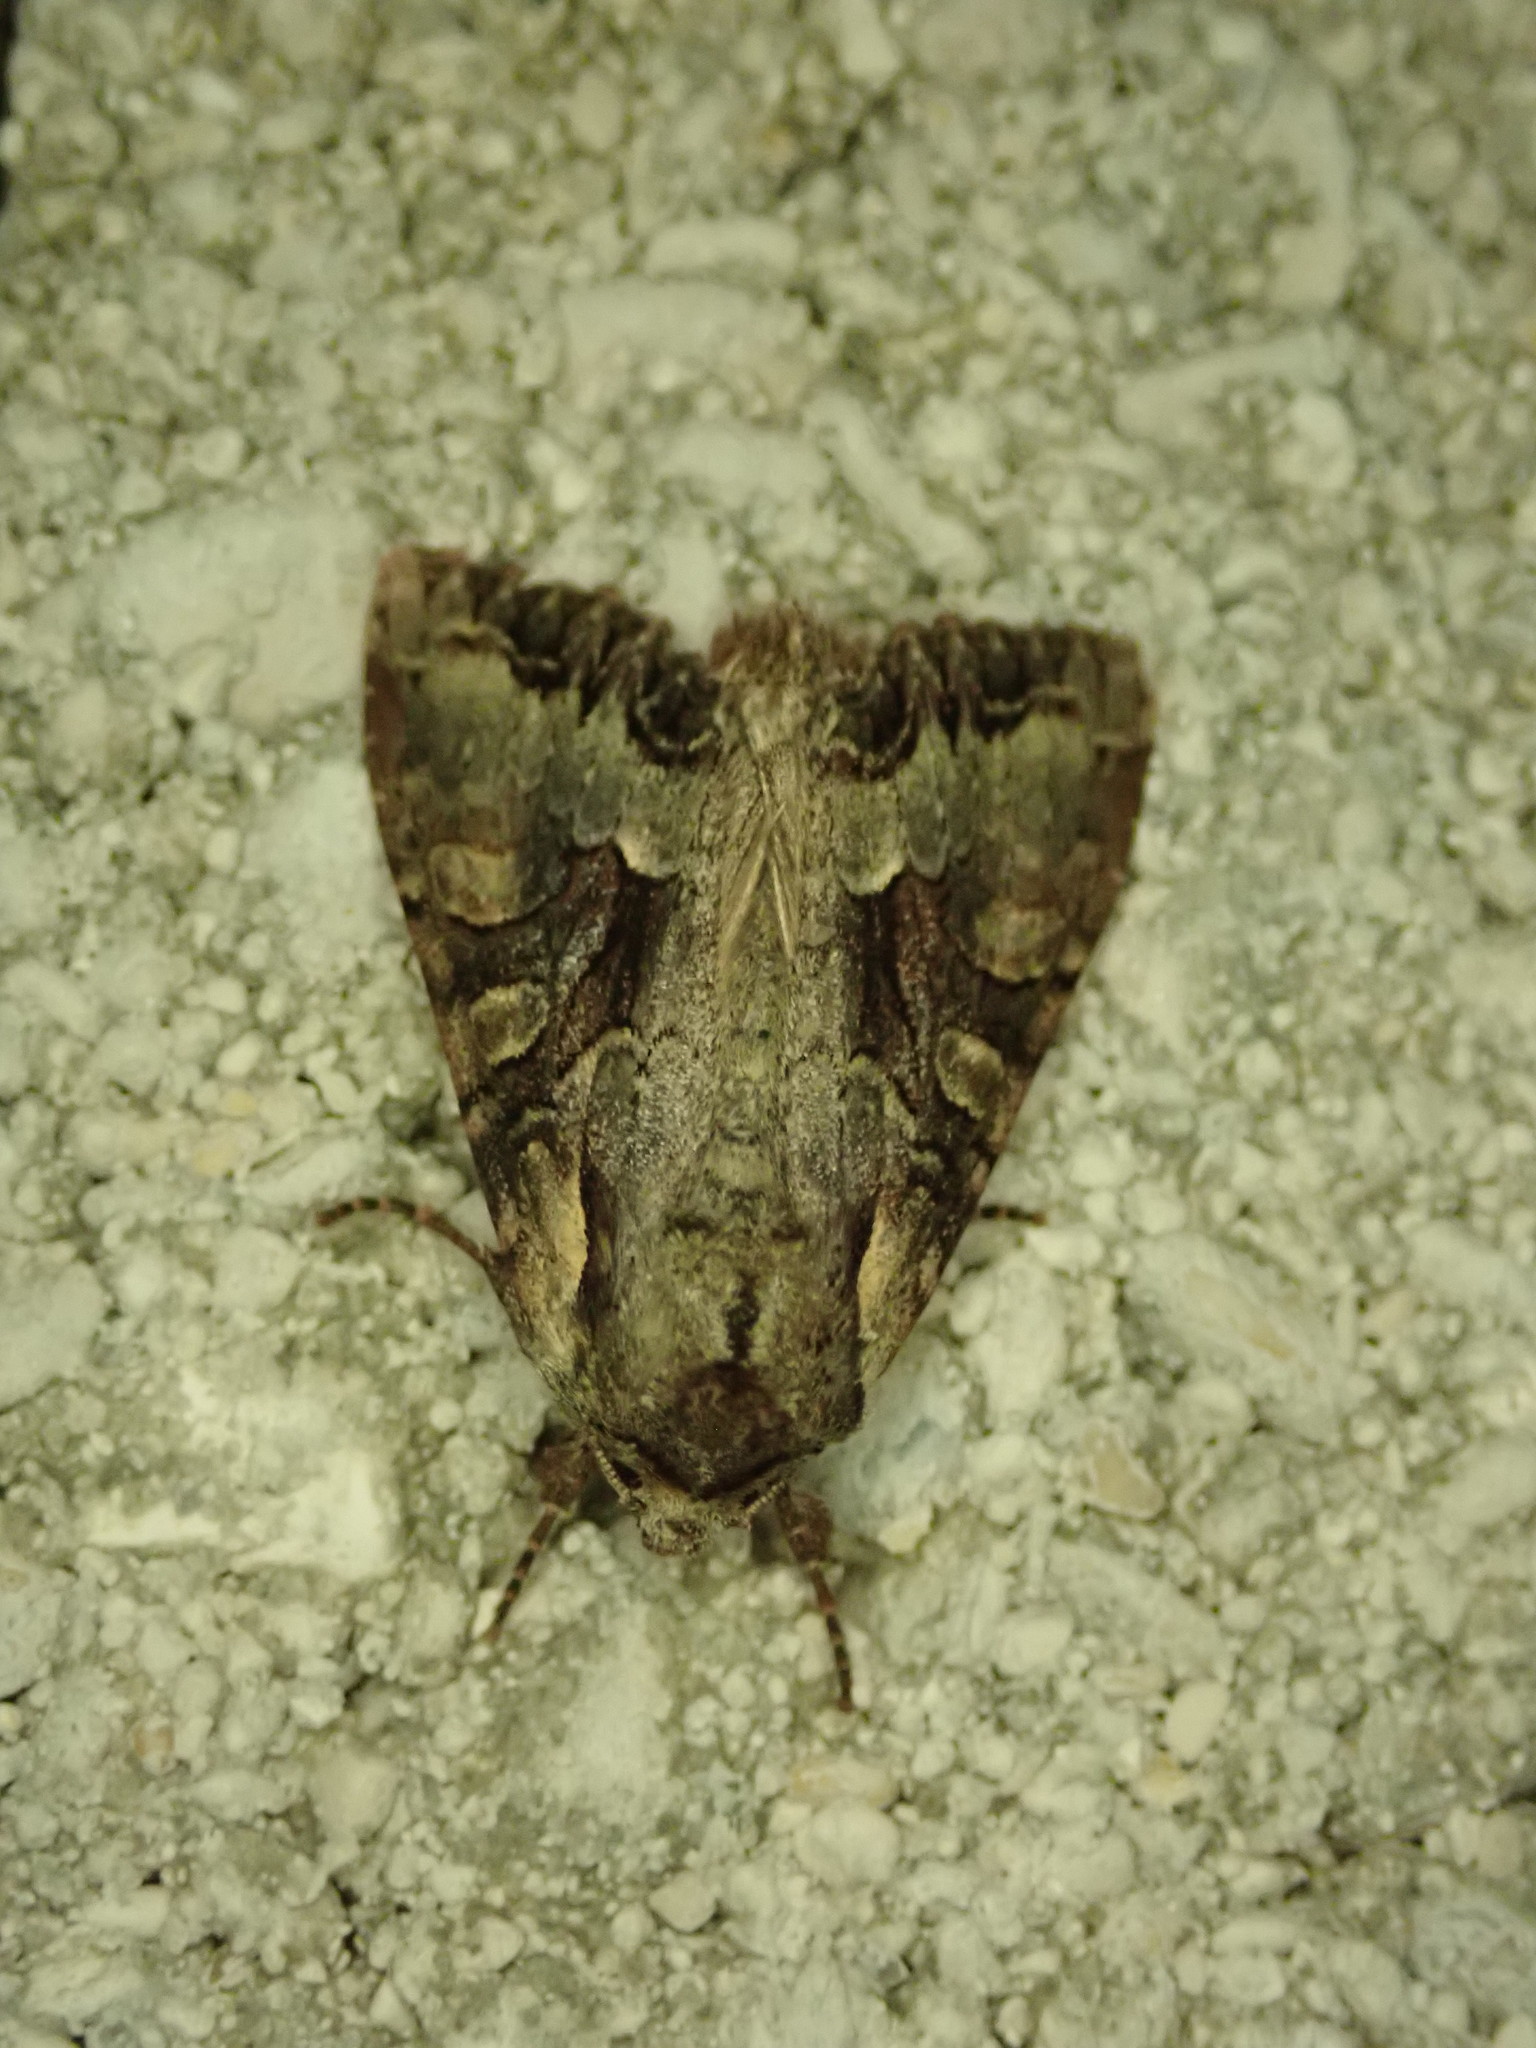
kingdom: Animalia
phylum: Arthropoda
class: Insecta
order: Lepidoptera
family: Noctuidae
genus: Lacanobia
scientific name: Lacanobia w-latinum
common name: Light brocade
